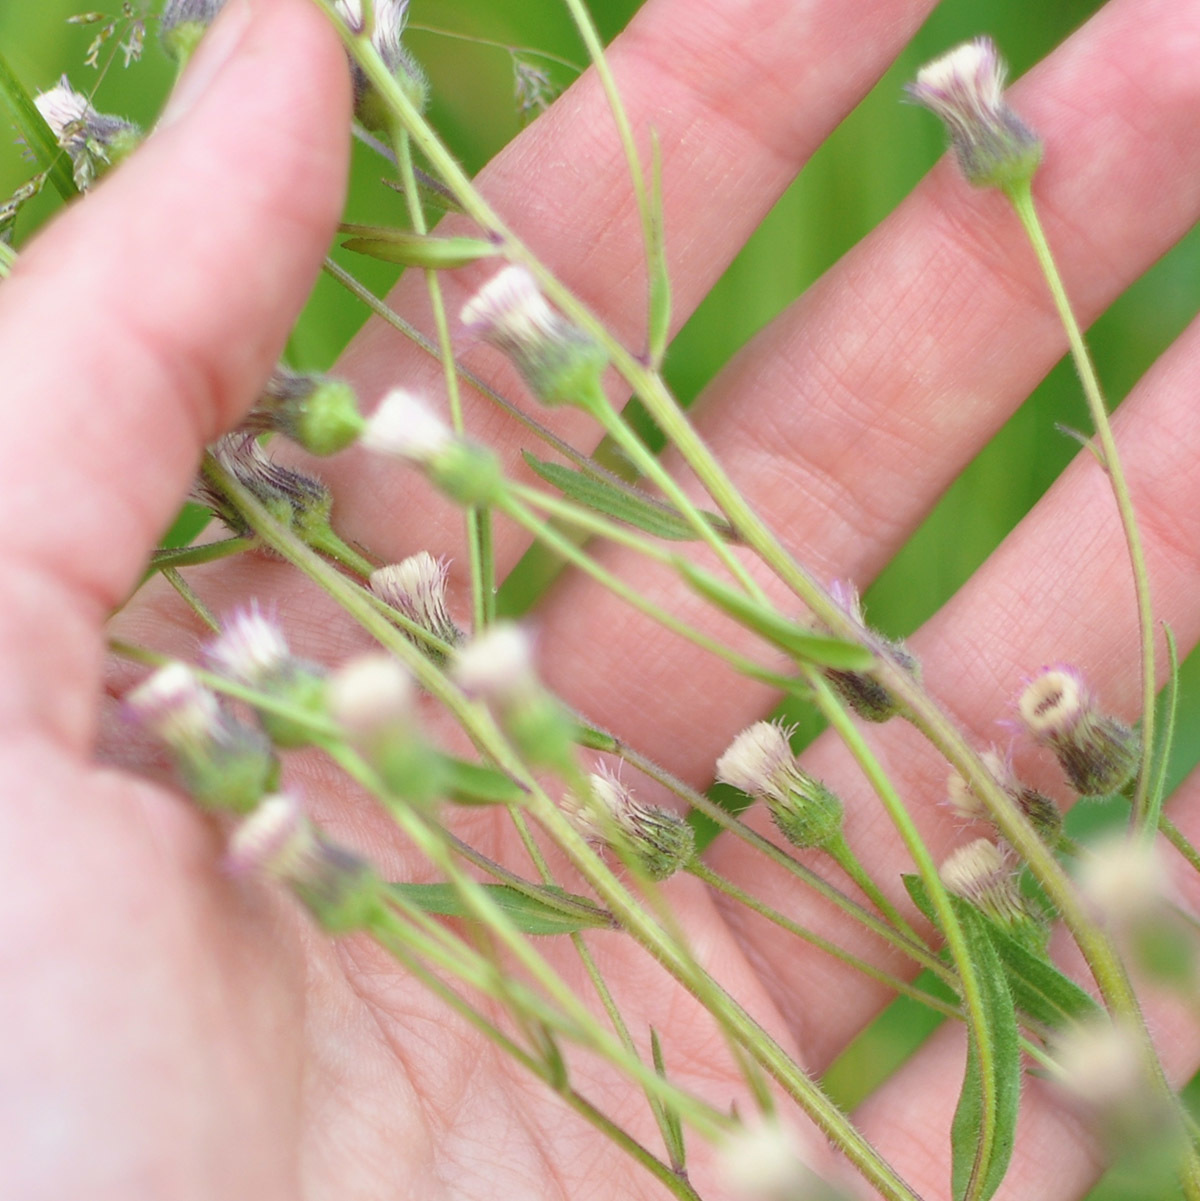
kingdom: Plantae
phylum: Tracheophyta
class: Magnoliopsida
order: Asterales
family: Asteraceae
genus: Erigeron
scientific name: Erigeron acris
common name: Blue fleabane
